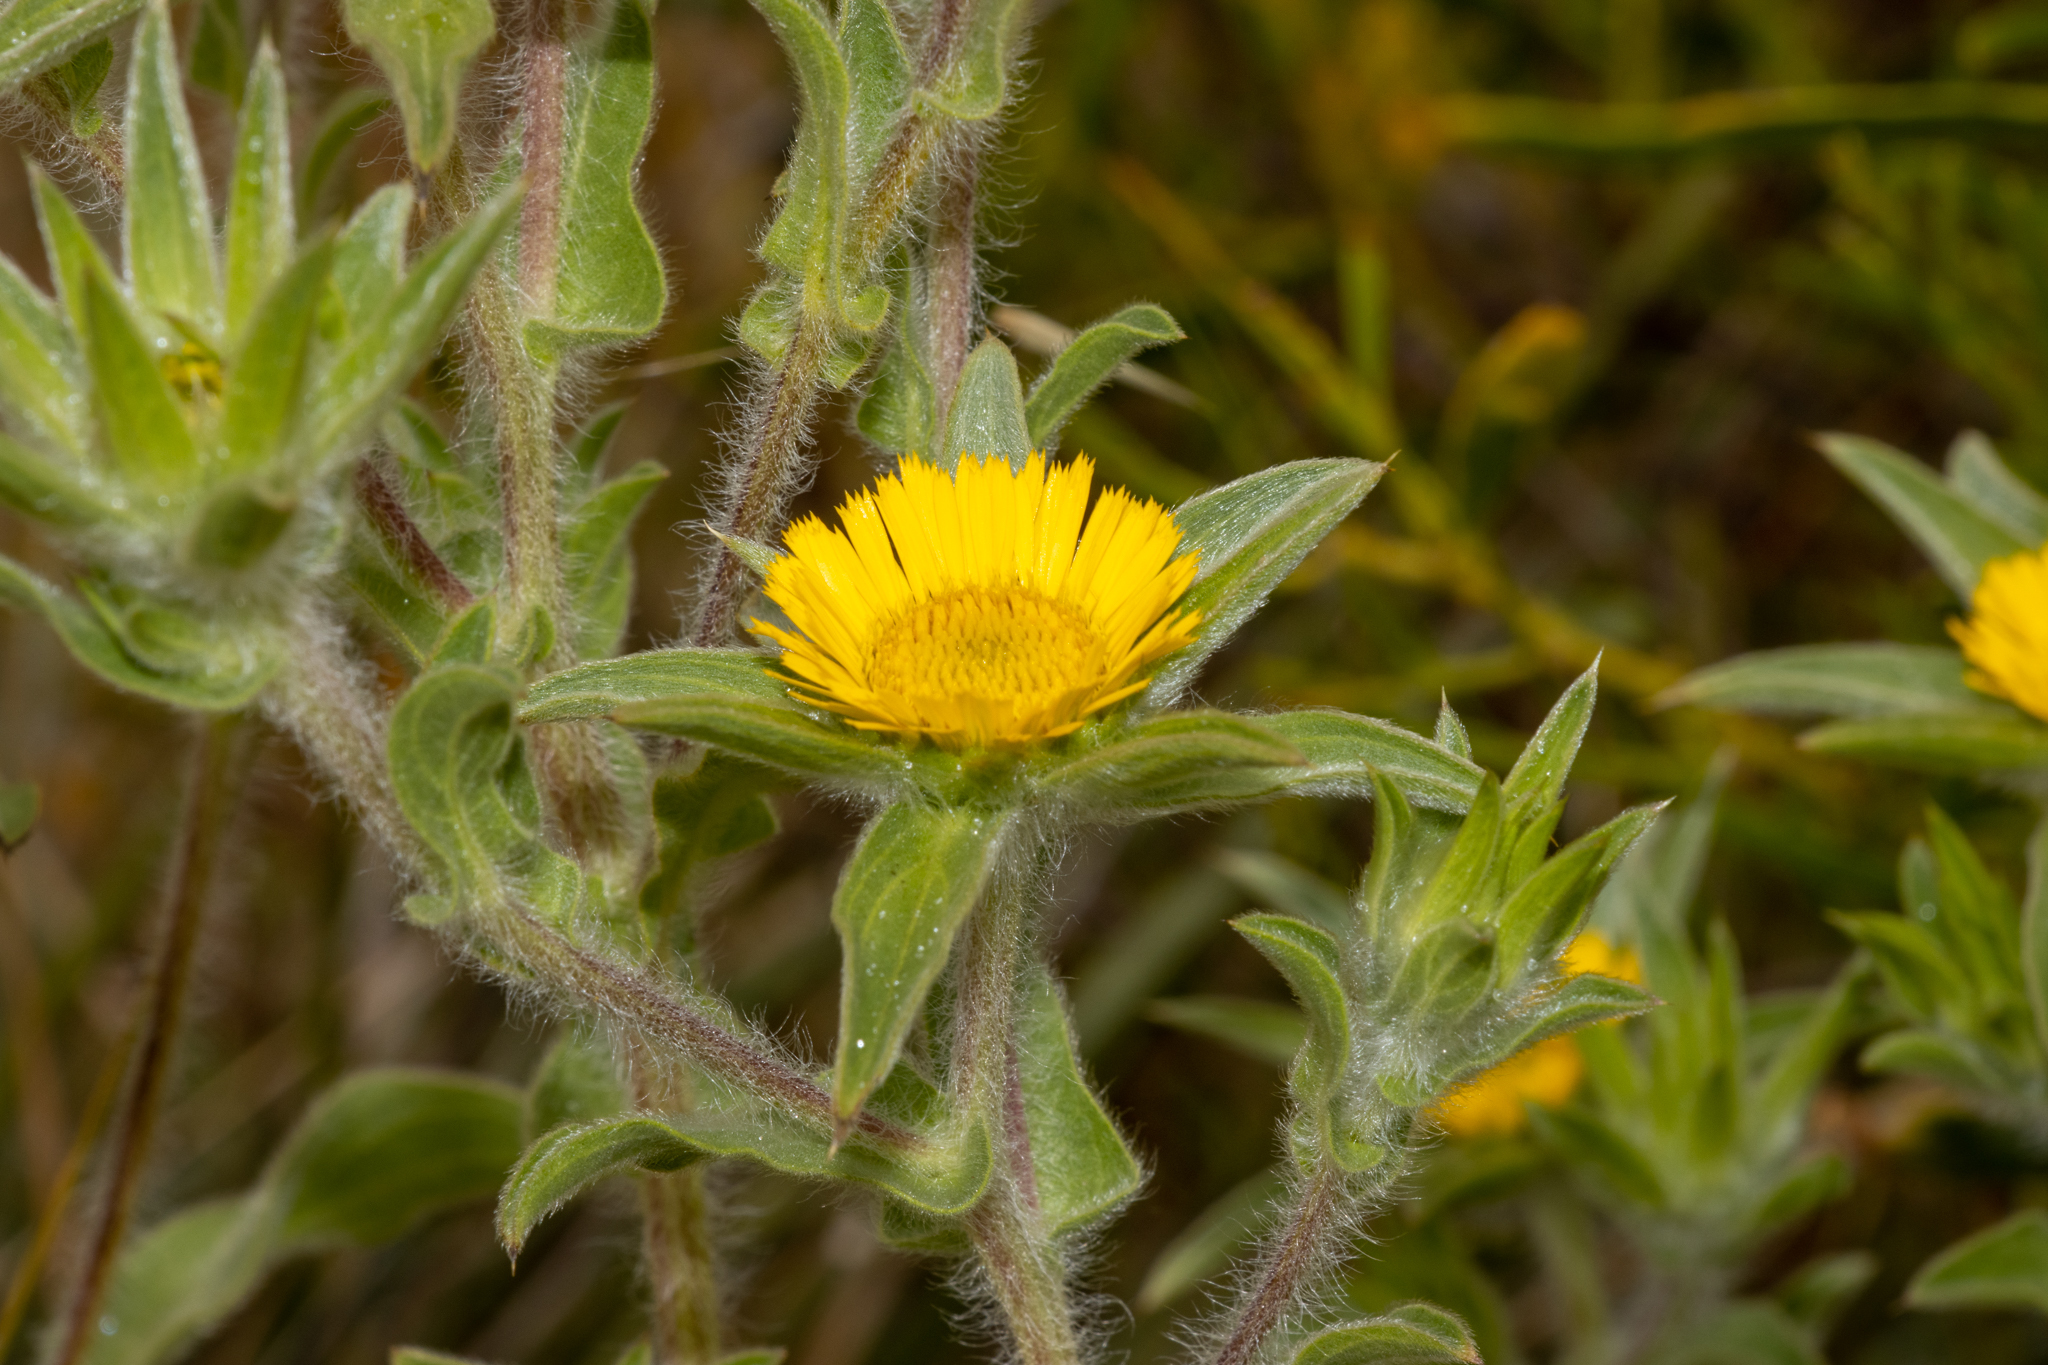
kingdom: Plantae
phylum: Tracheophyta
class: Magnoliopsida
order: Asterales
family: Asteraceae
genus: Pallenis
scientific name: Pallenis spinosa
